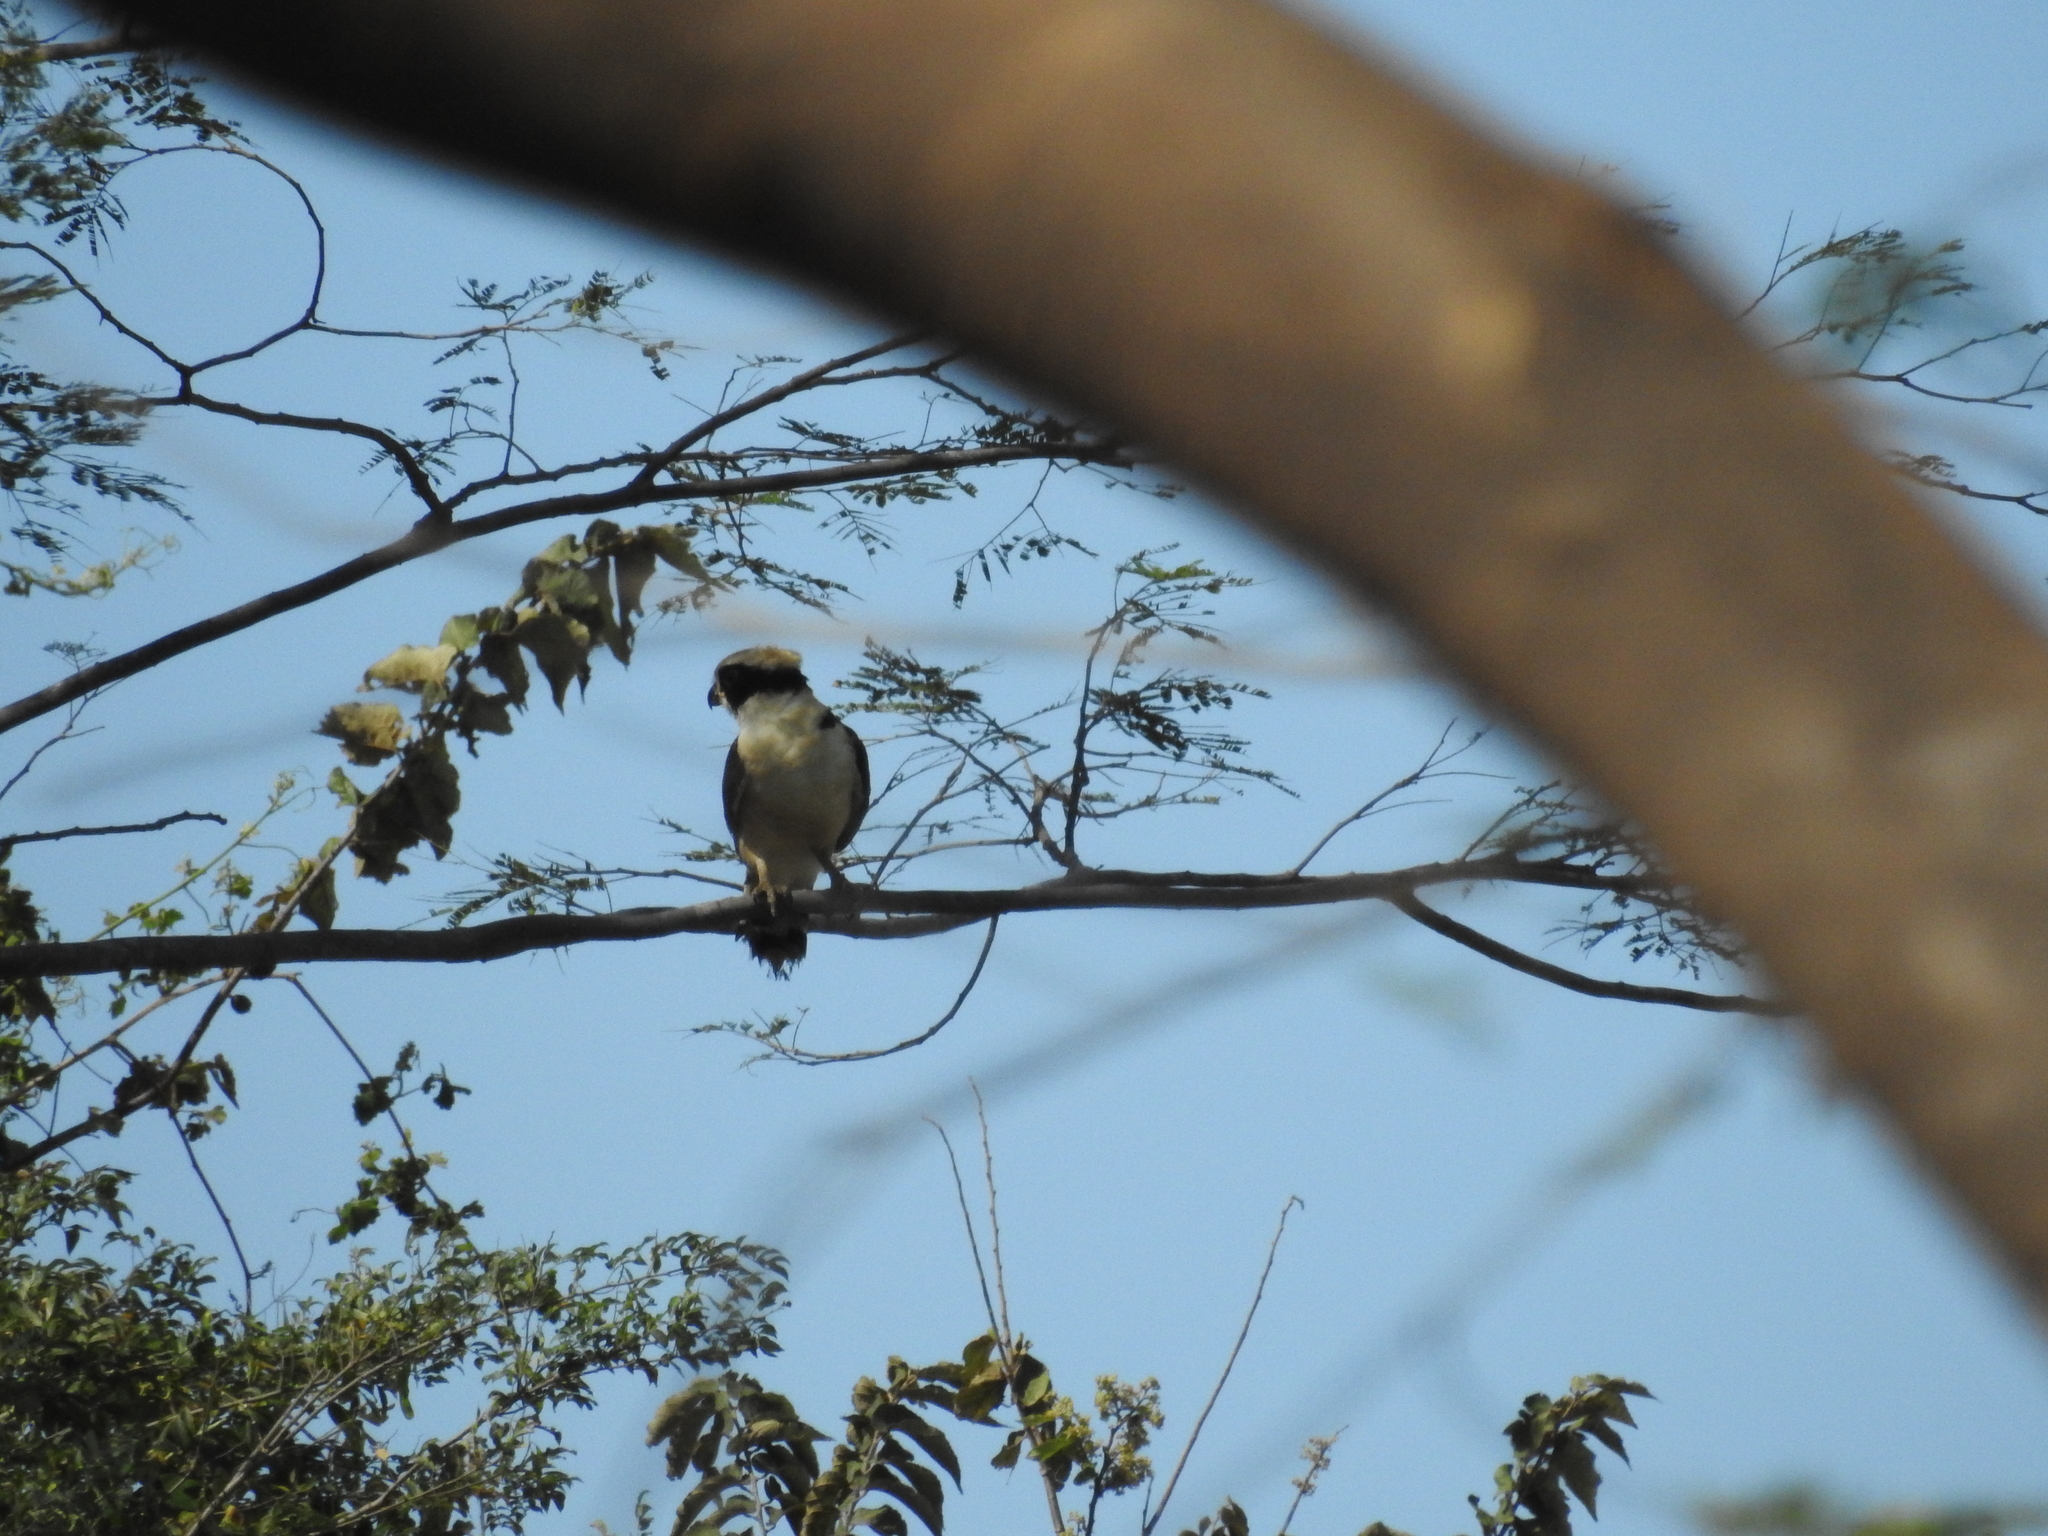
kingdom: Animalia
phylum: Chordata
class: Aves
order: Falconiformes
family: Falconidae
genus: Herpetotheres
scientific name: Herpetotheres cachinnans
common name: Laughing falcon
